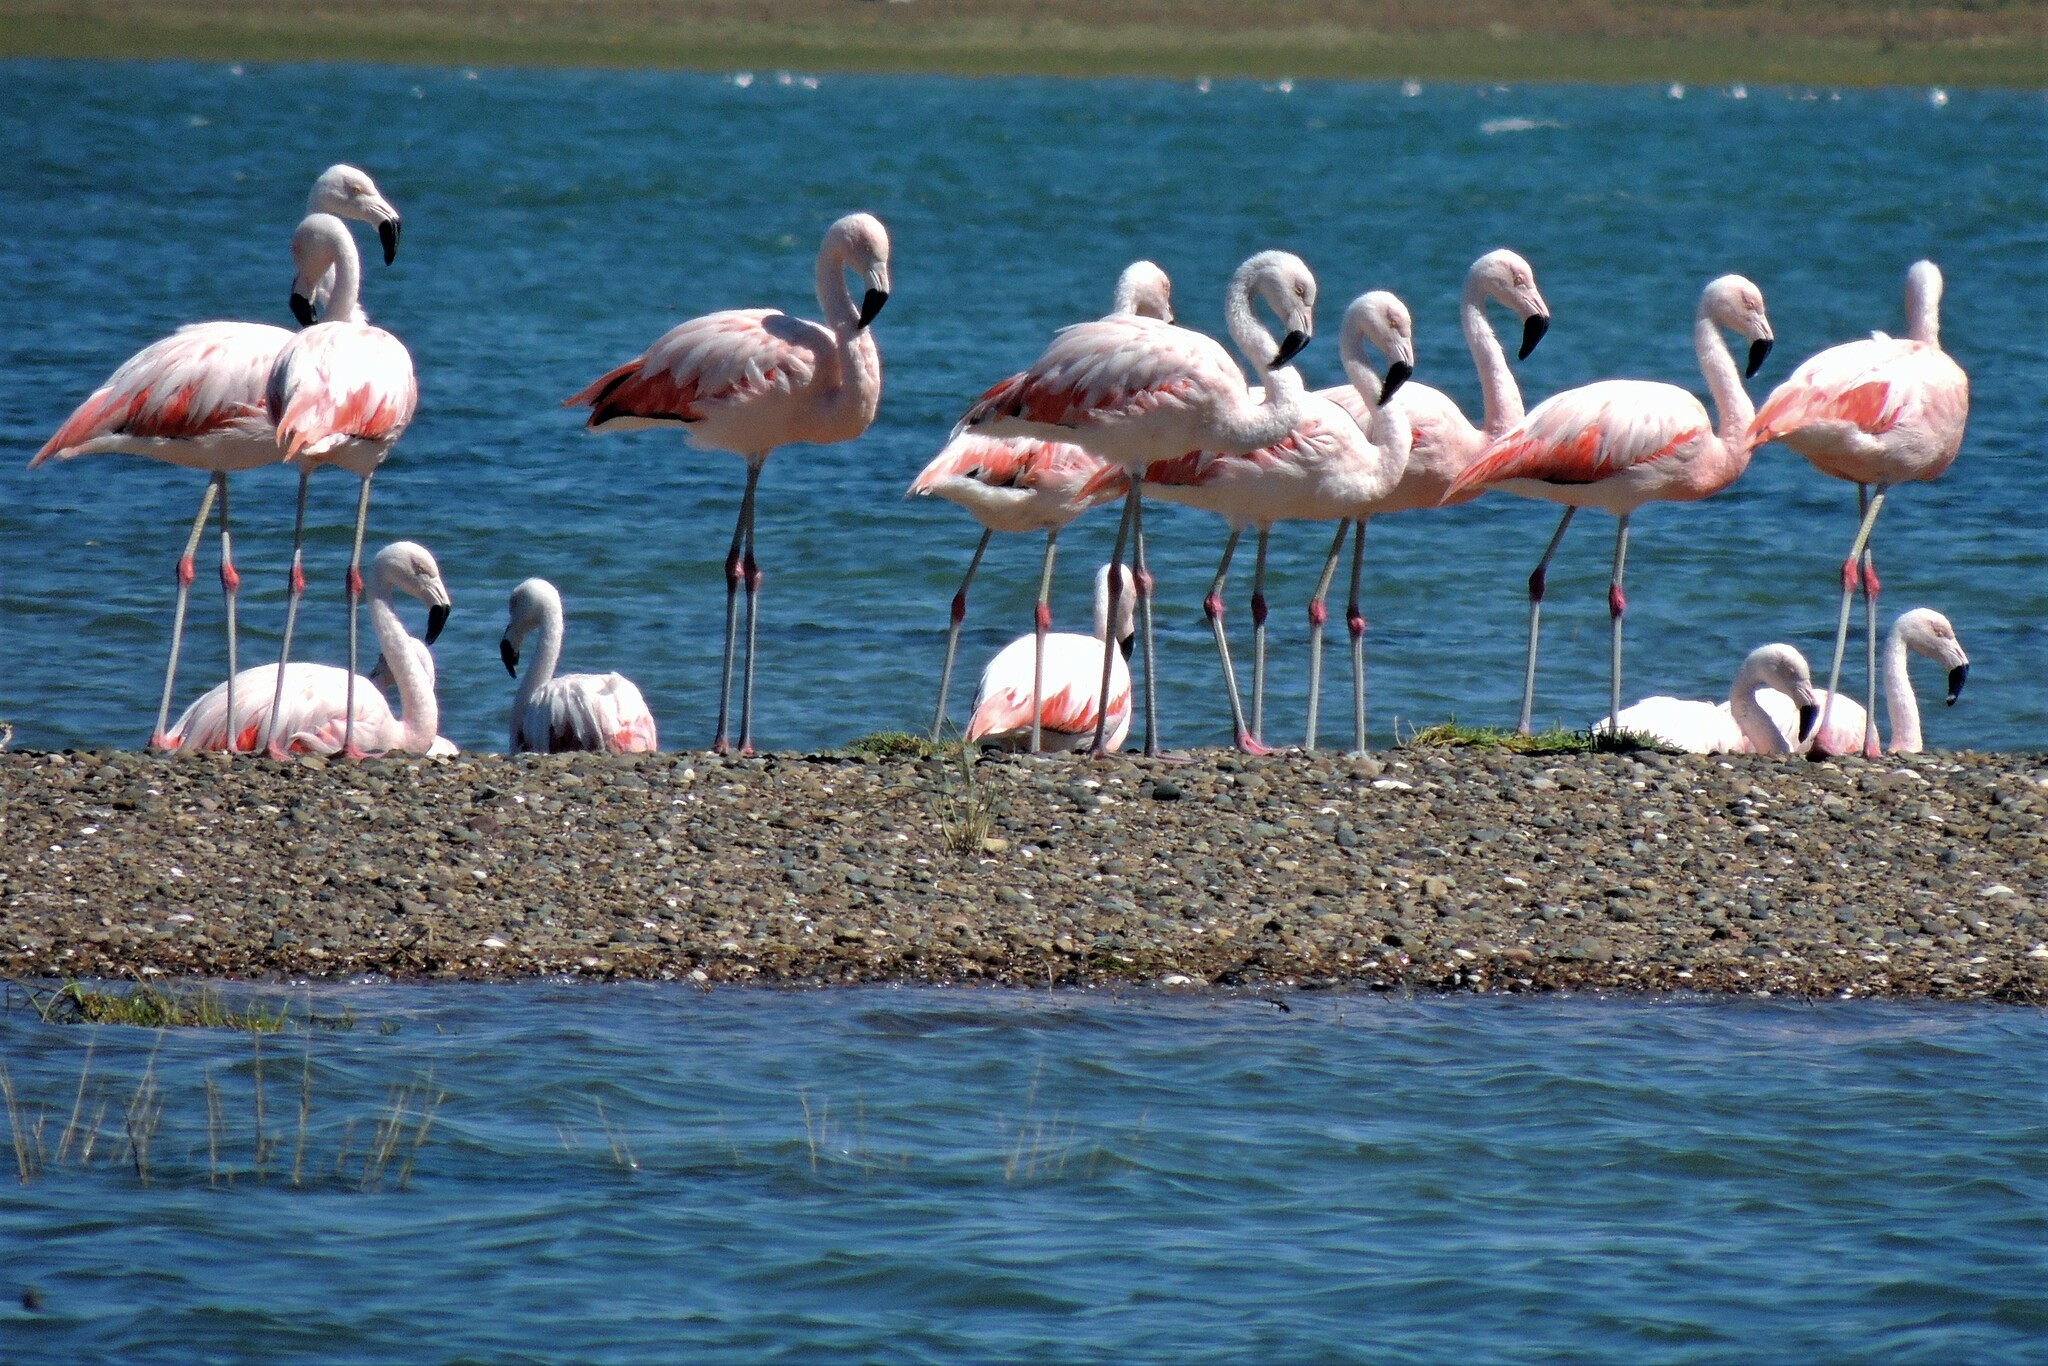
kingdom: Animalia
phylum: Chordata
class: Aves
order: Phoenicopteriformes
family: Phoenicopteridae
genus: Phoenicopterus
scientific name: Phoenicopterus chilensis
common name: Chilean flamingo
